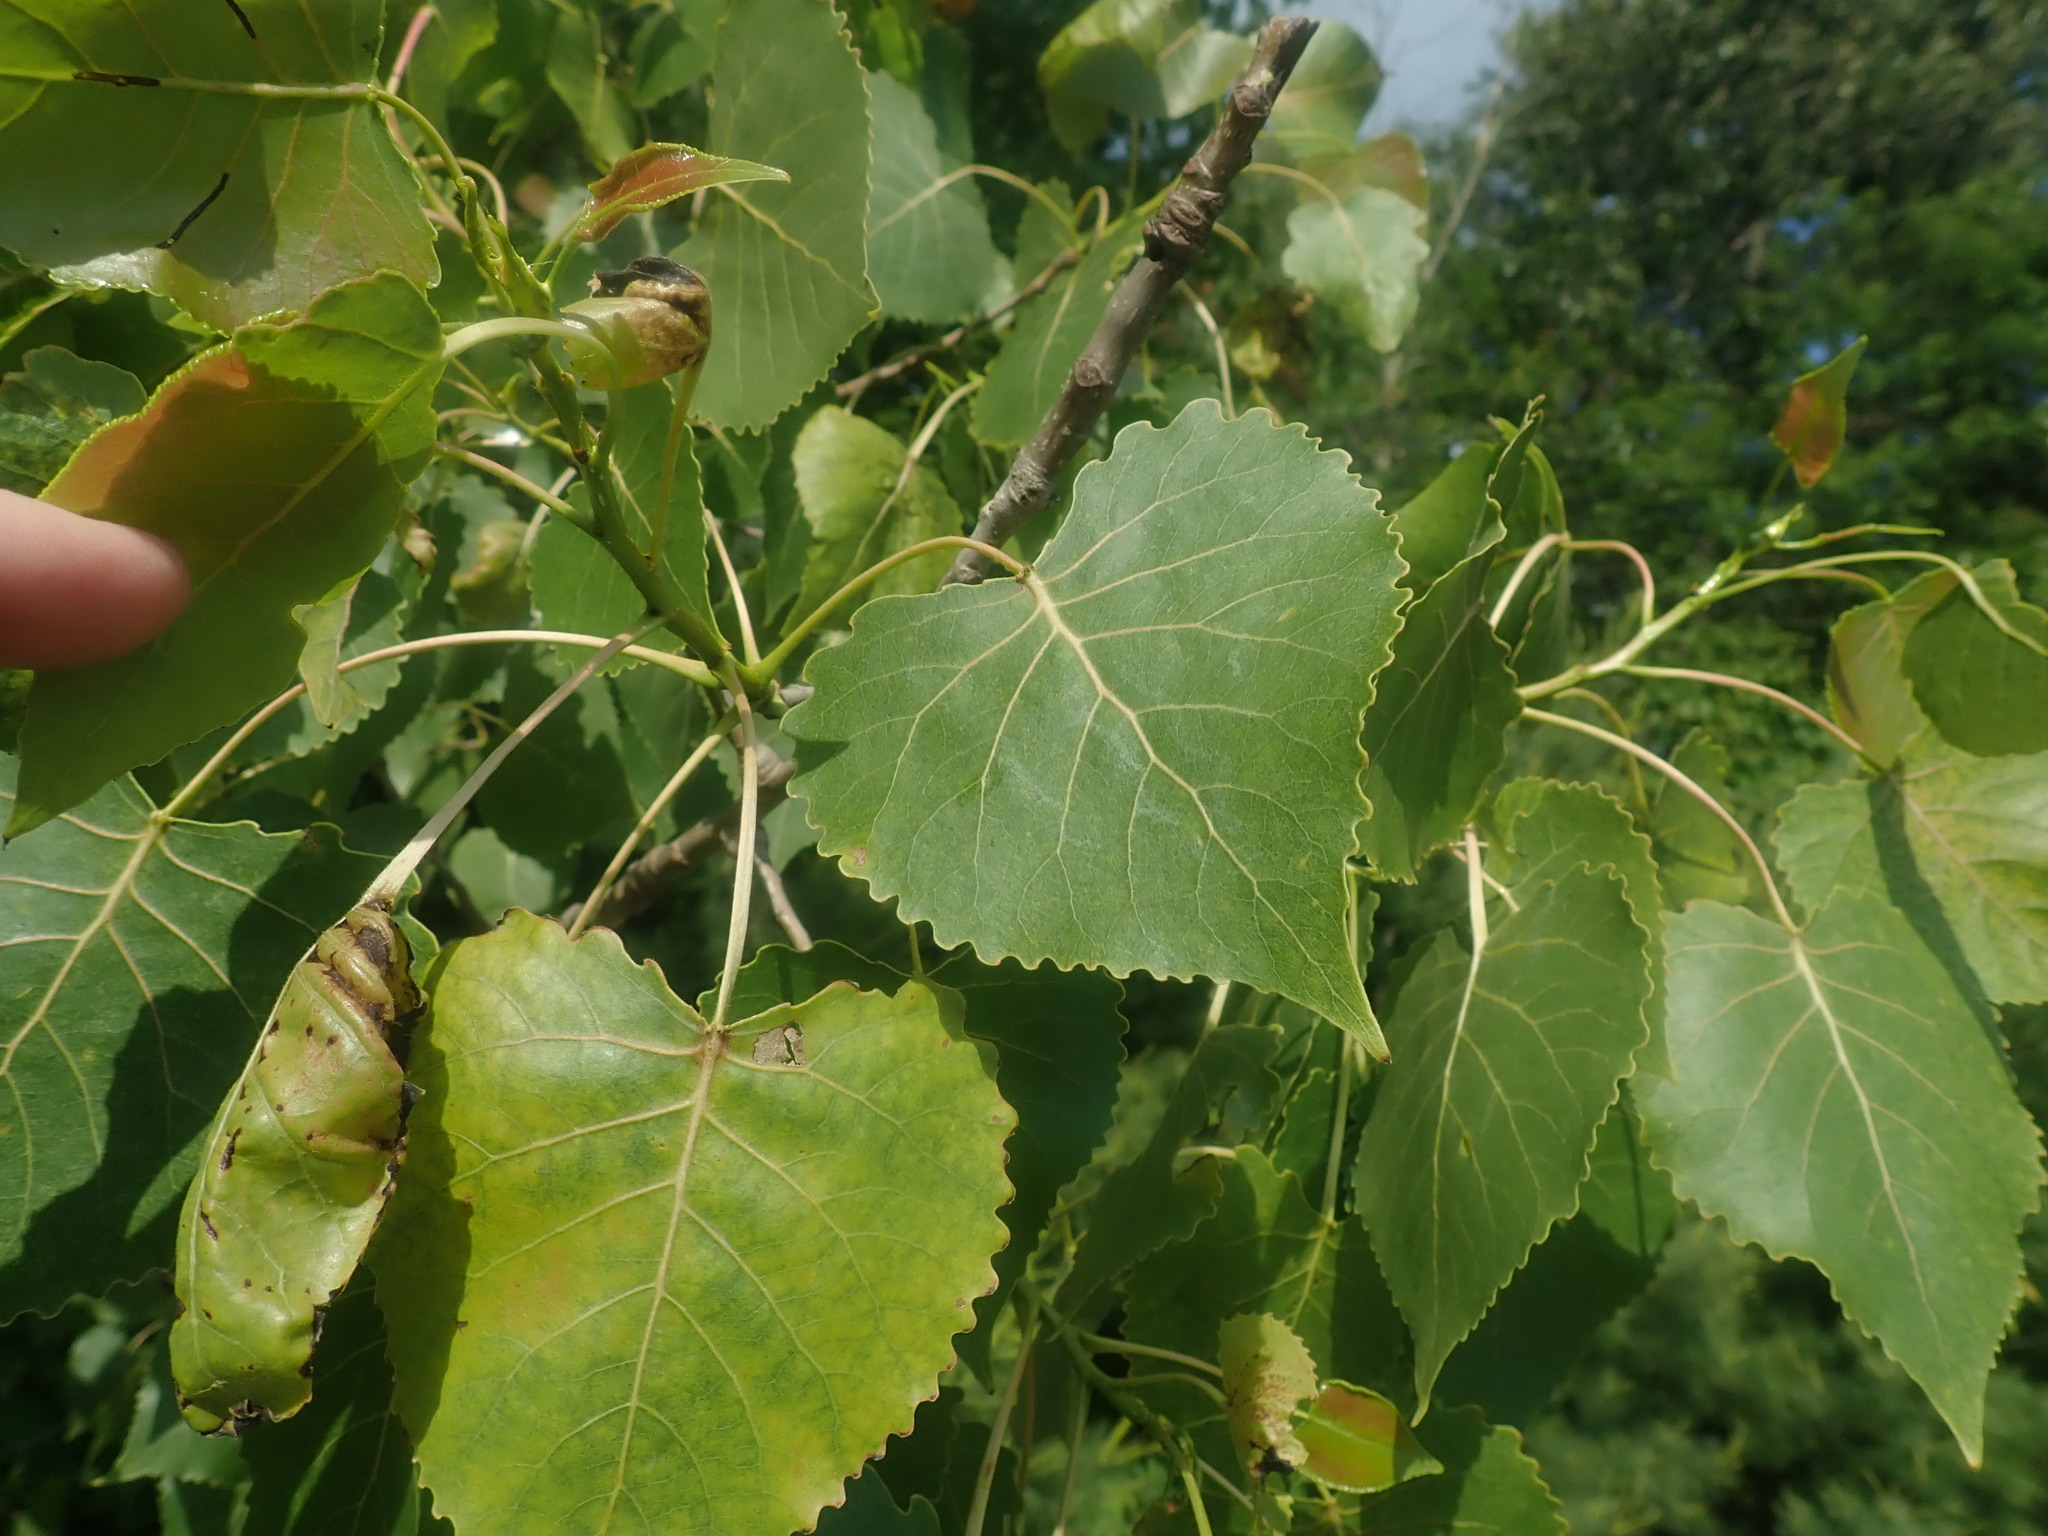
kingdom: Plantae
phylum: Tracheophyta
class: Magnoliopsida
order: Malpighiales
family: Salicaceae
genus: Populus
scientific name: Populus deltoides
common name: Eastern cottonwood
